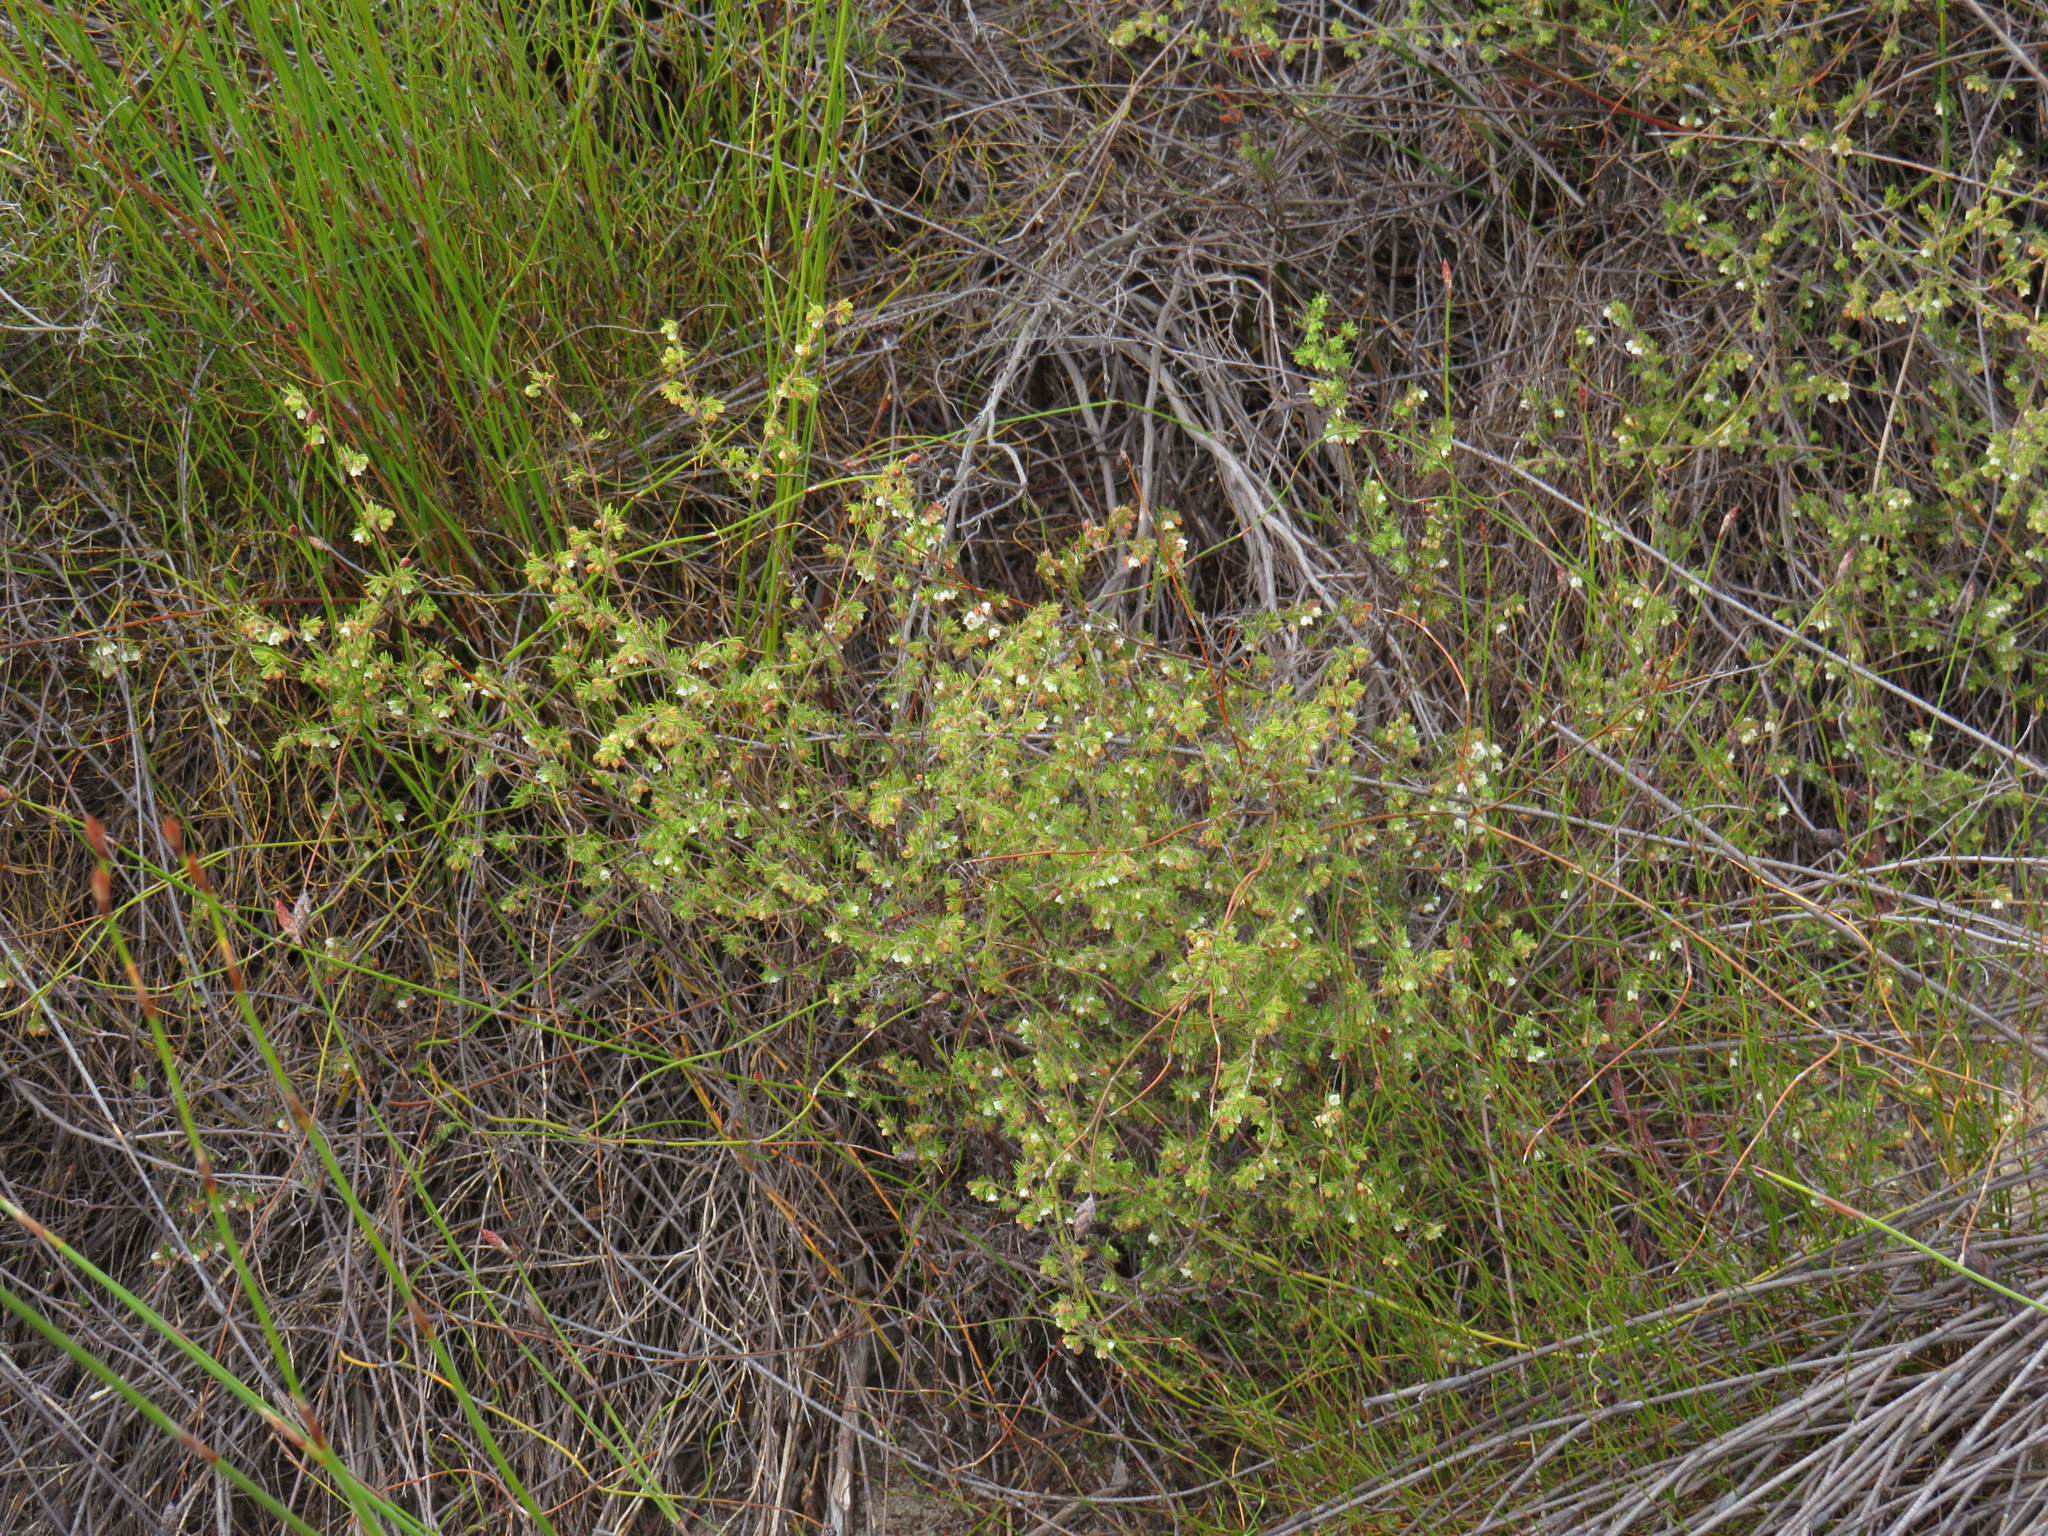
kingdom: Plantae
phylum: Tracheophyta
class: Magnoliopsida
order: Ericales
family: Ericaceae
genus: Erica
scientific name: Erica distorta
